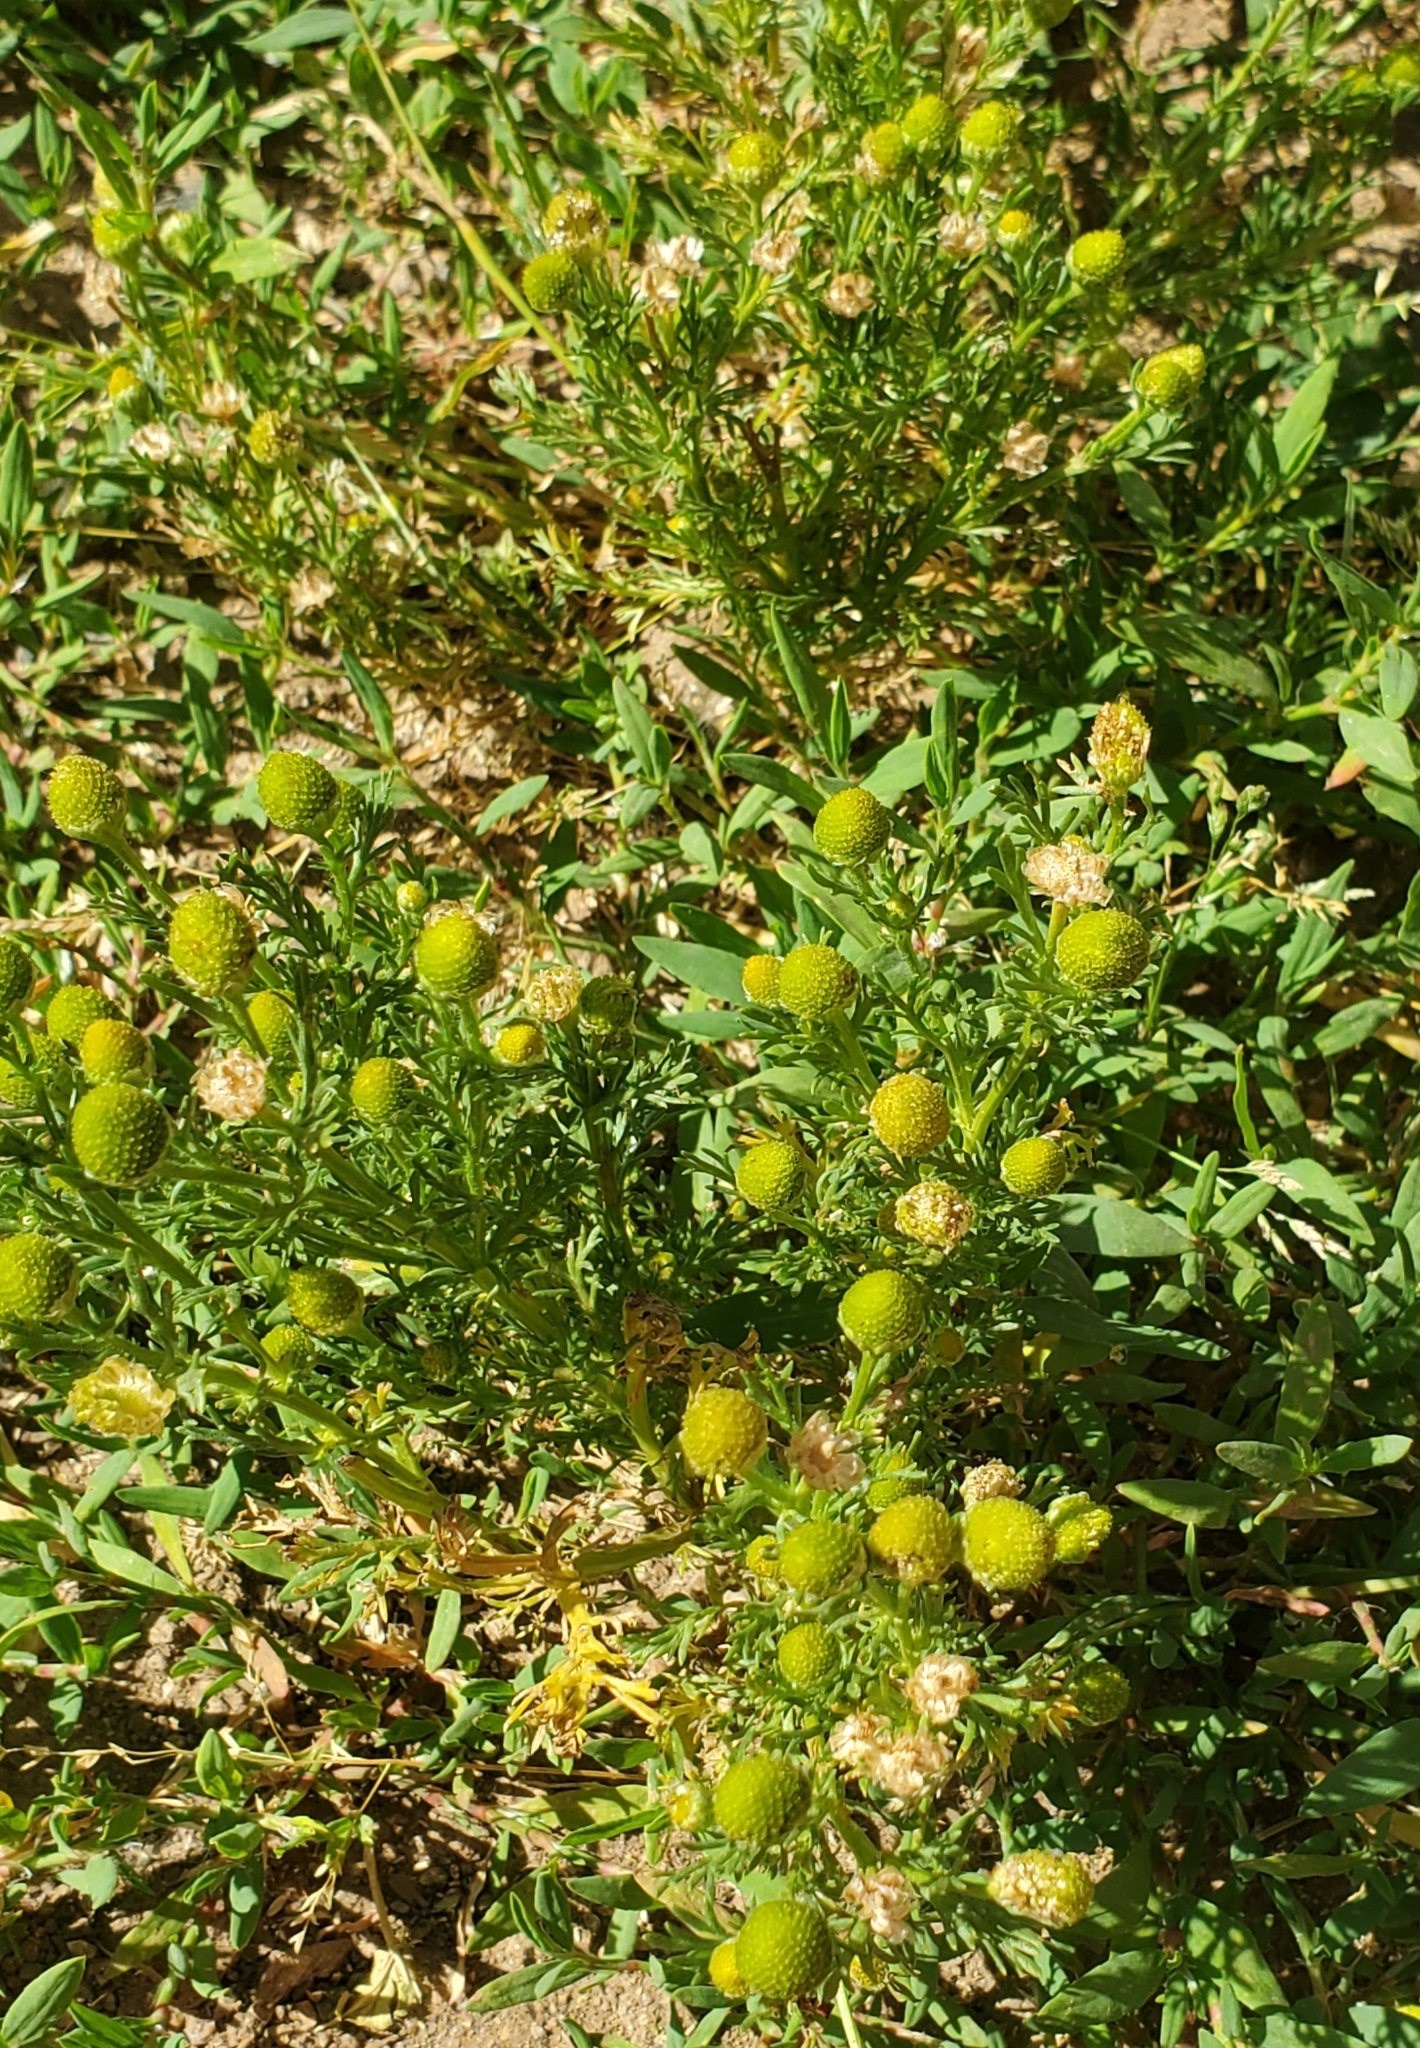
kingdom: Plantae
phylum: Tracheophyta
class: Magnoliopsida
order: Asterales
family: Asteraceae
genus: Matricaria
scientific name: Matricaria discoidea
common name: Disc mayweed
